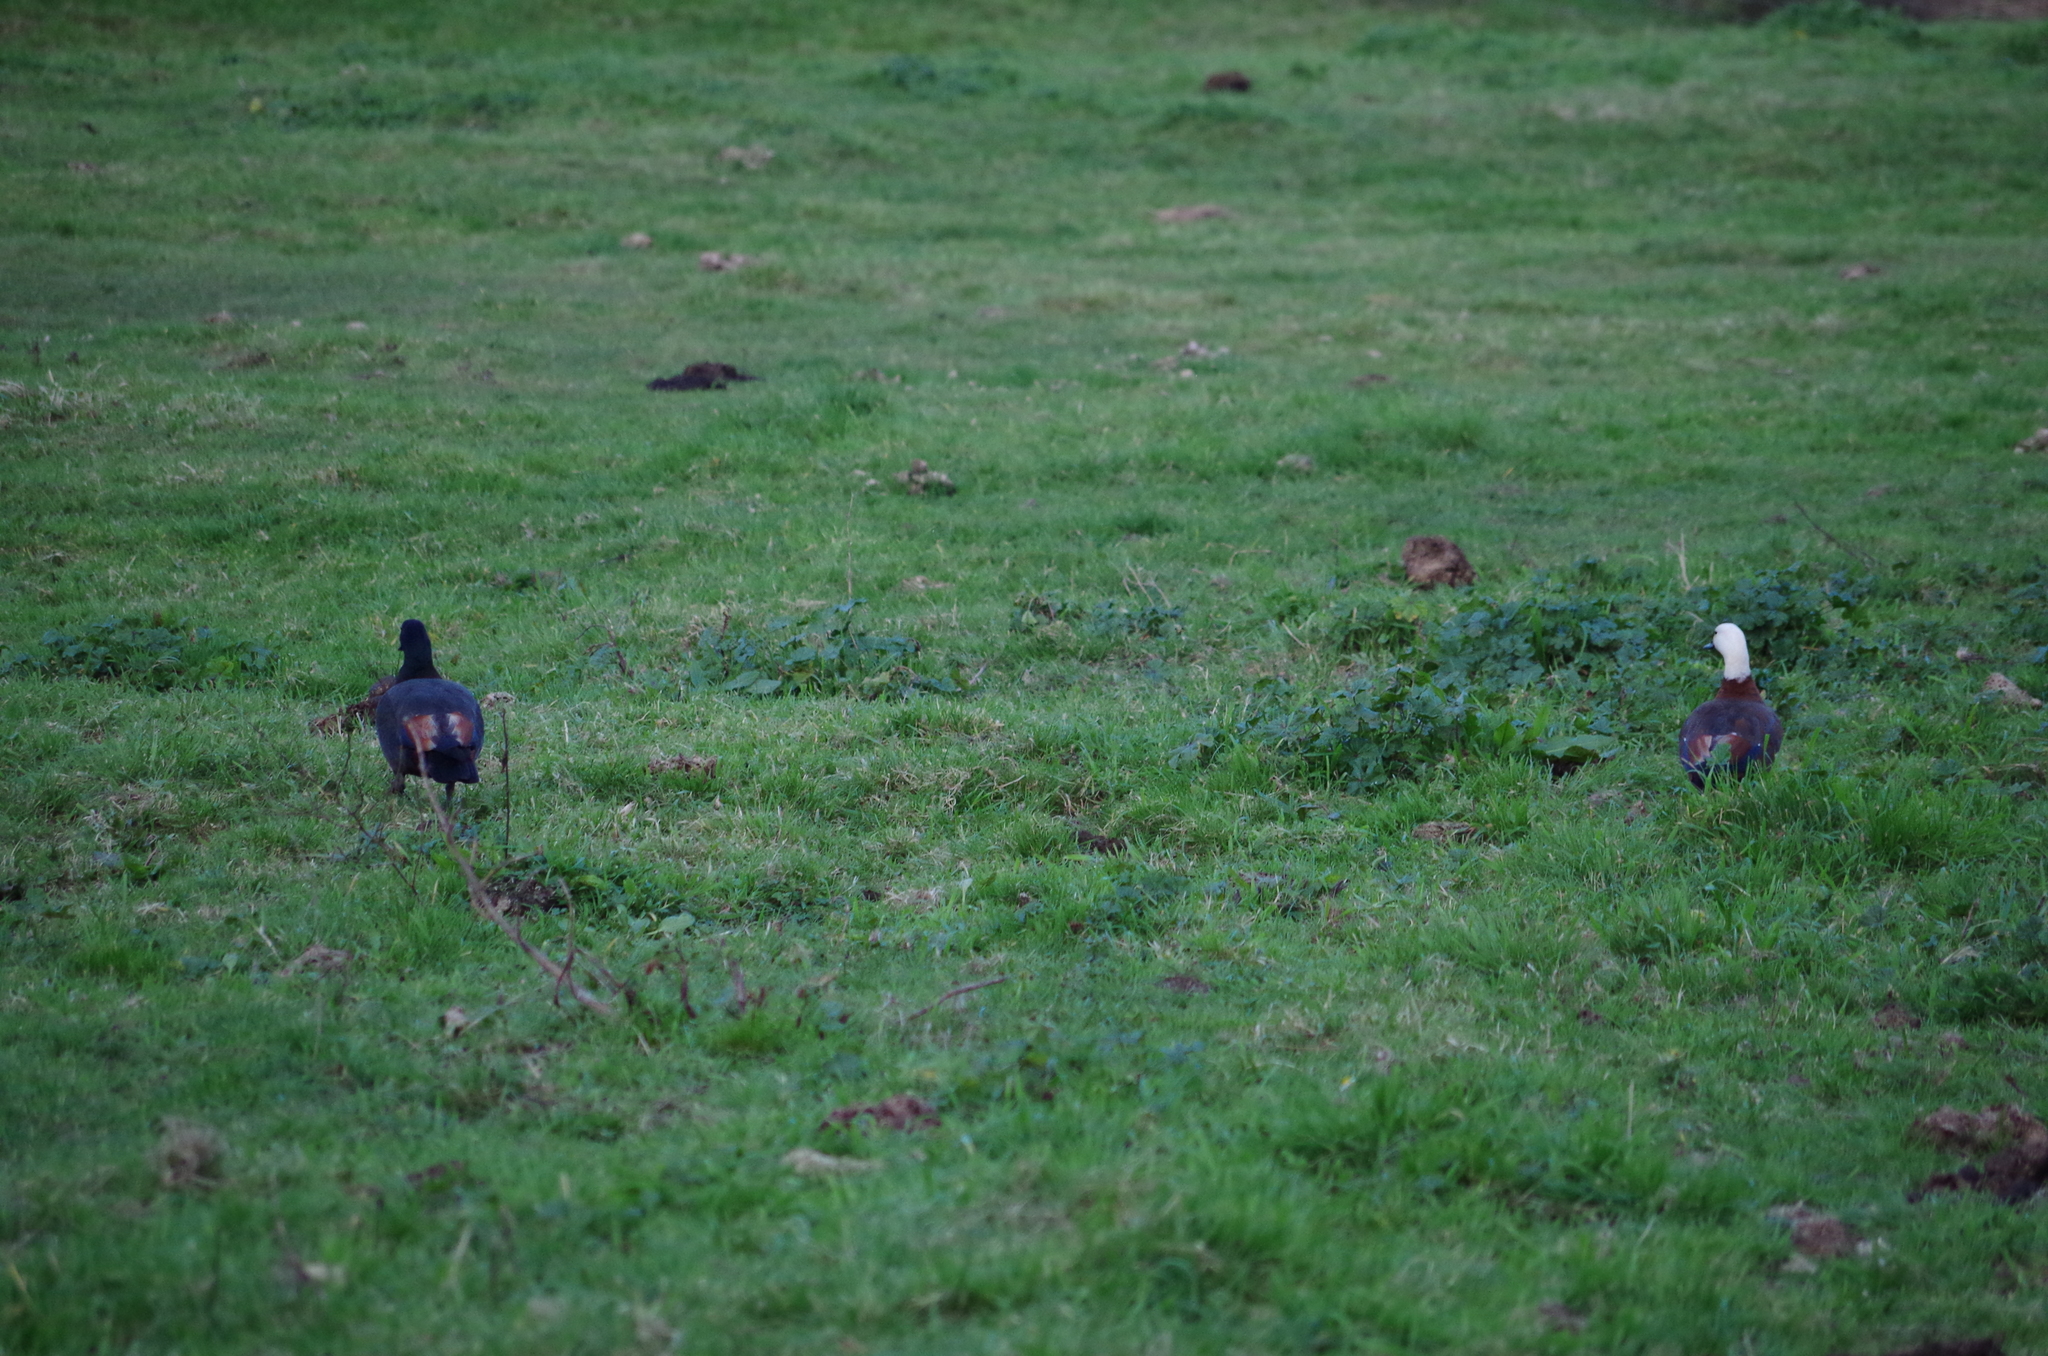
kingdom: Animalia
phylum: Chordata
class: Aves
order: Anseriformes
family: Anatidae
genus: Tadorna
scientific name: Tadorna variegata
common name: Paradise shelduck
